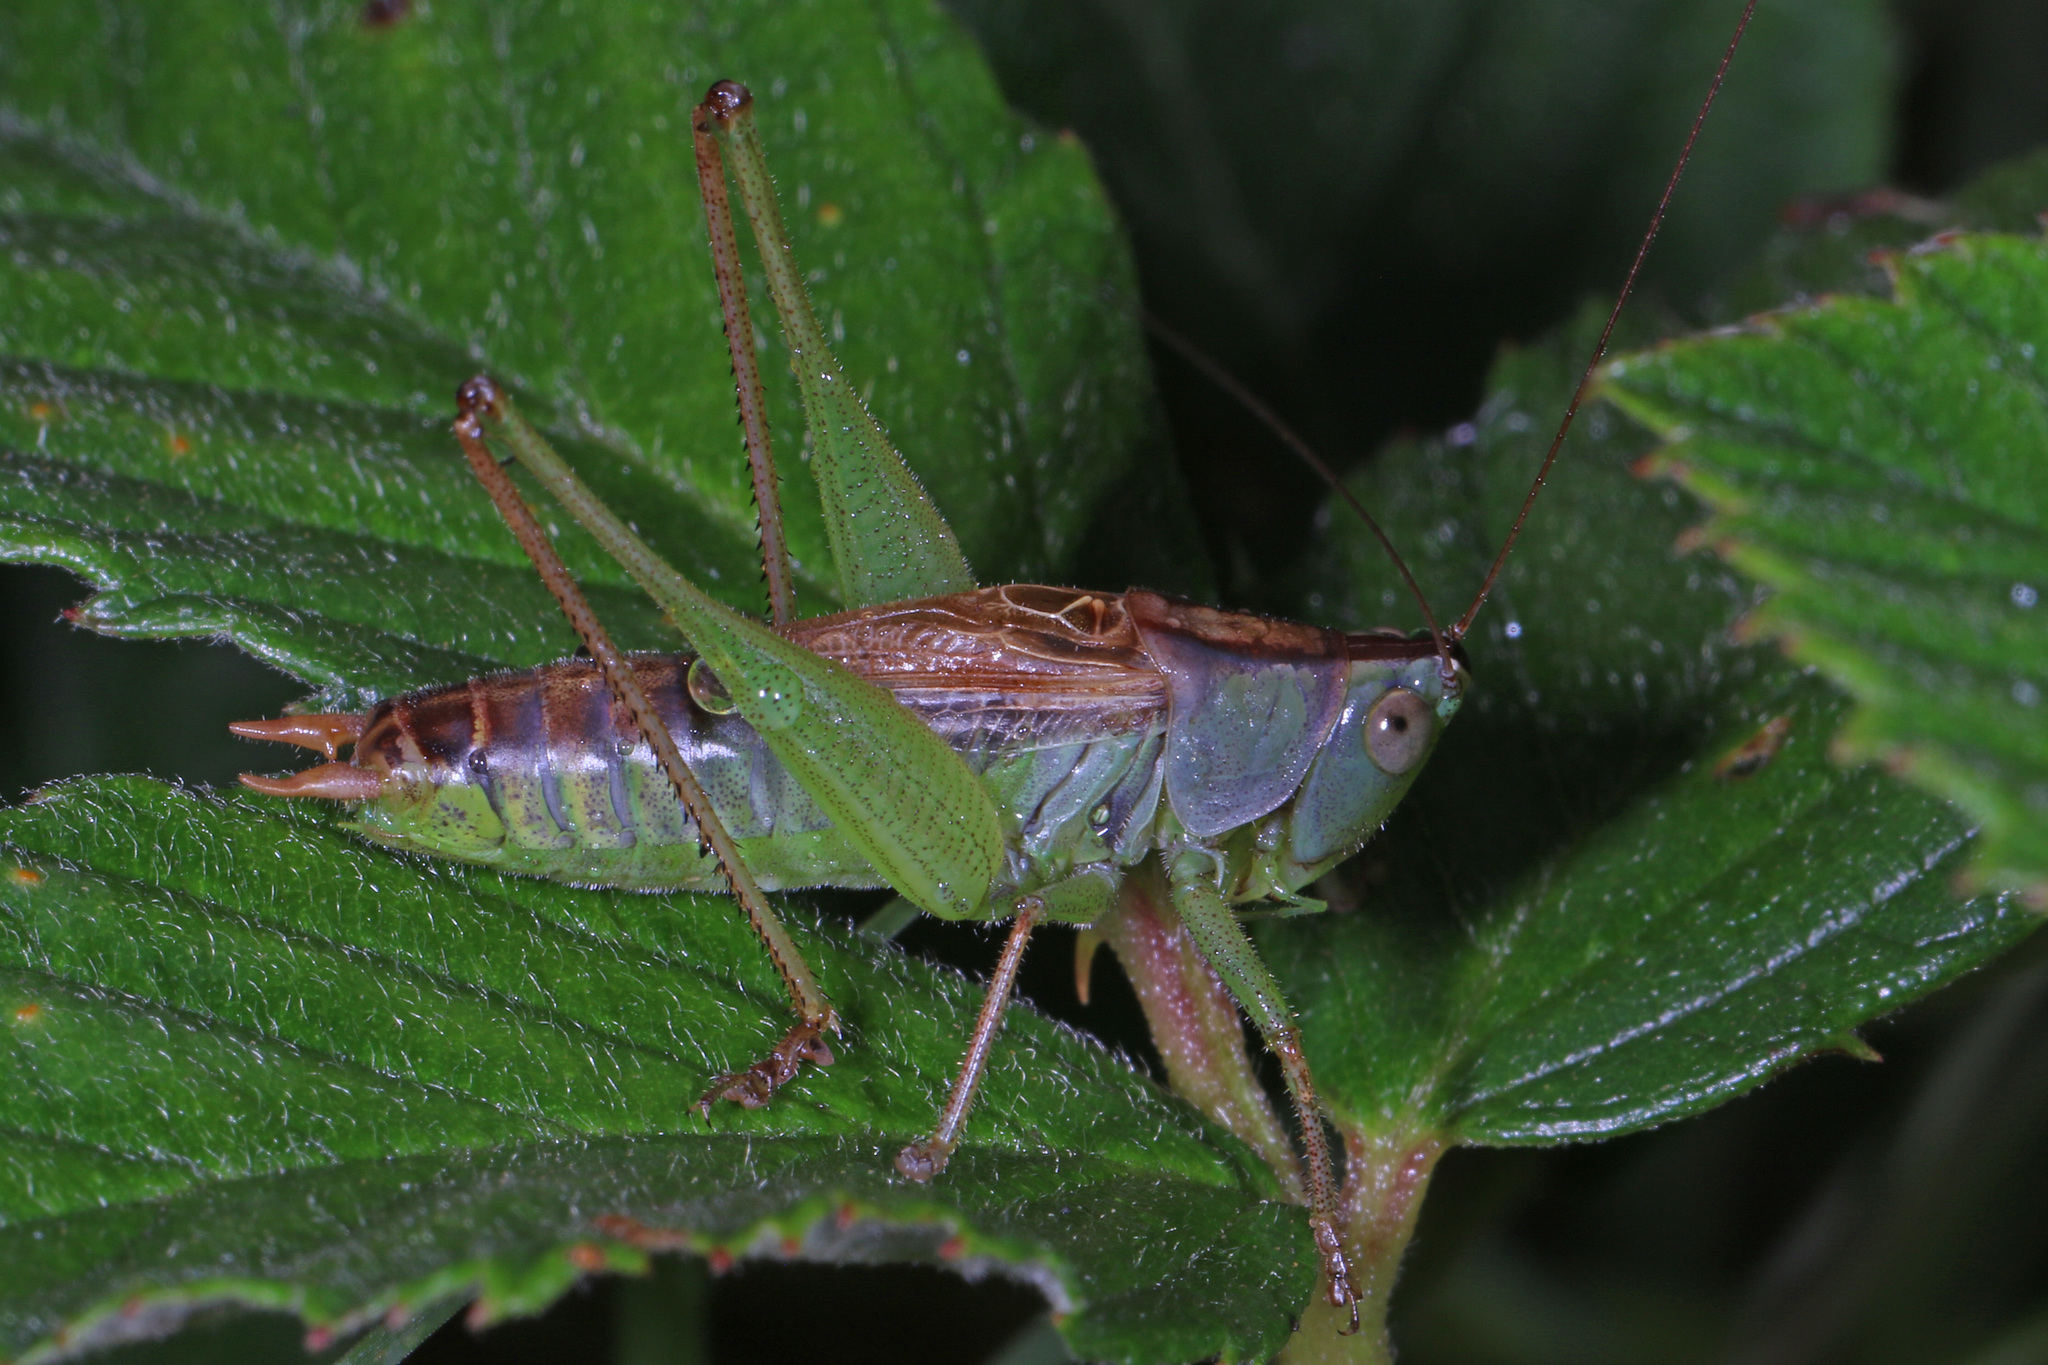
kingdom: Animalia
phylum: Arthropoda
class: Insecta
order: Orthoptera
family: Tettigoniidae
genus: Conocephalus
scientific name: Conocephalus strictus
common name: Straight-lanced katydid
